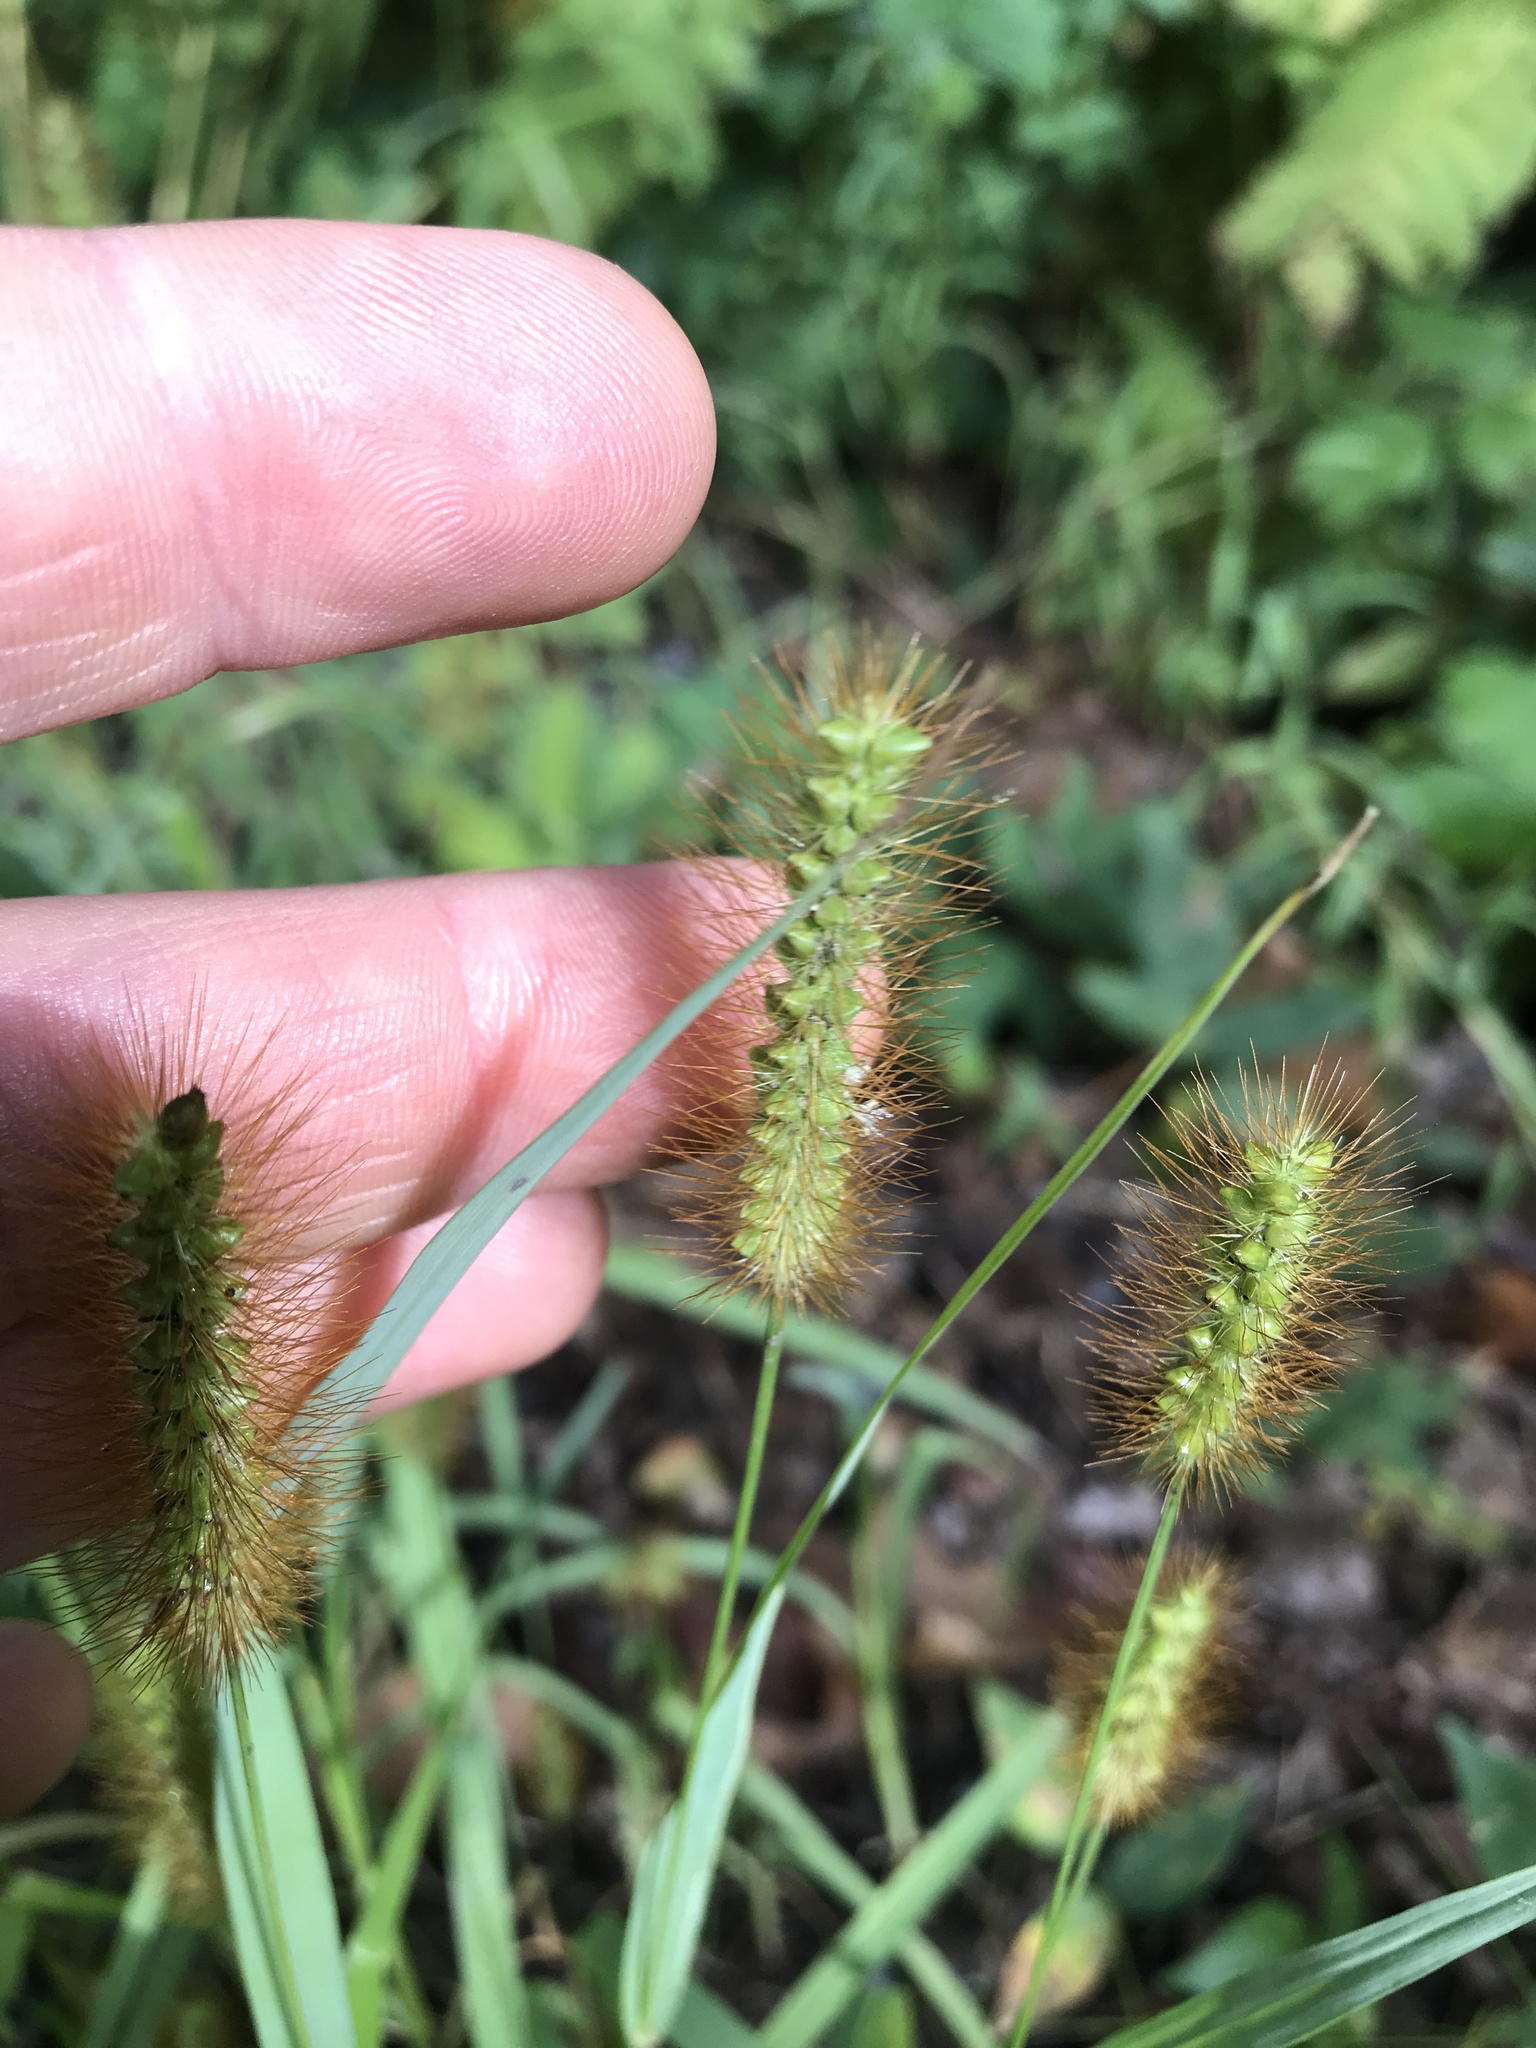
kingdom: Plantae
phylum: Tracheophyta
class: Liliopsida
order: Poales
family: Poaceae
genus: Setaria
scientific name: Setaria pumila
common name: Yellow bristle-grass
